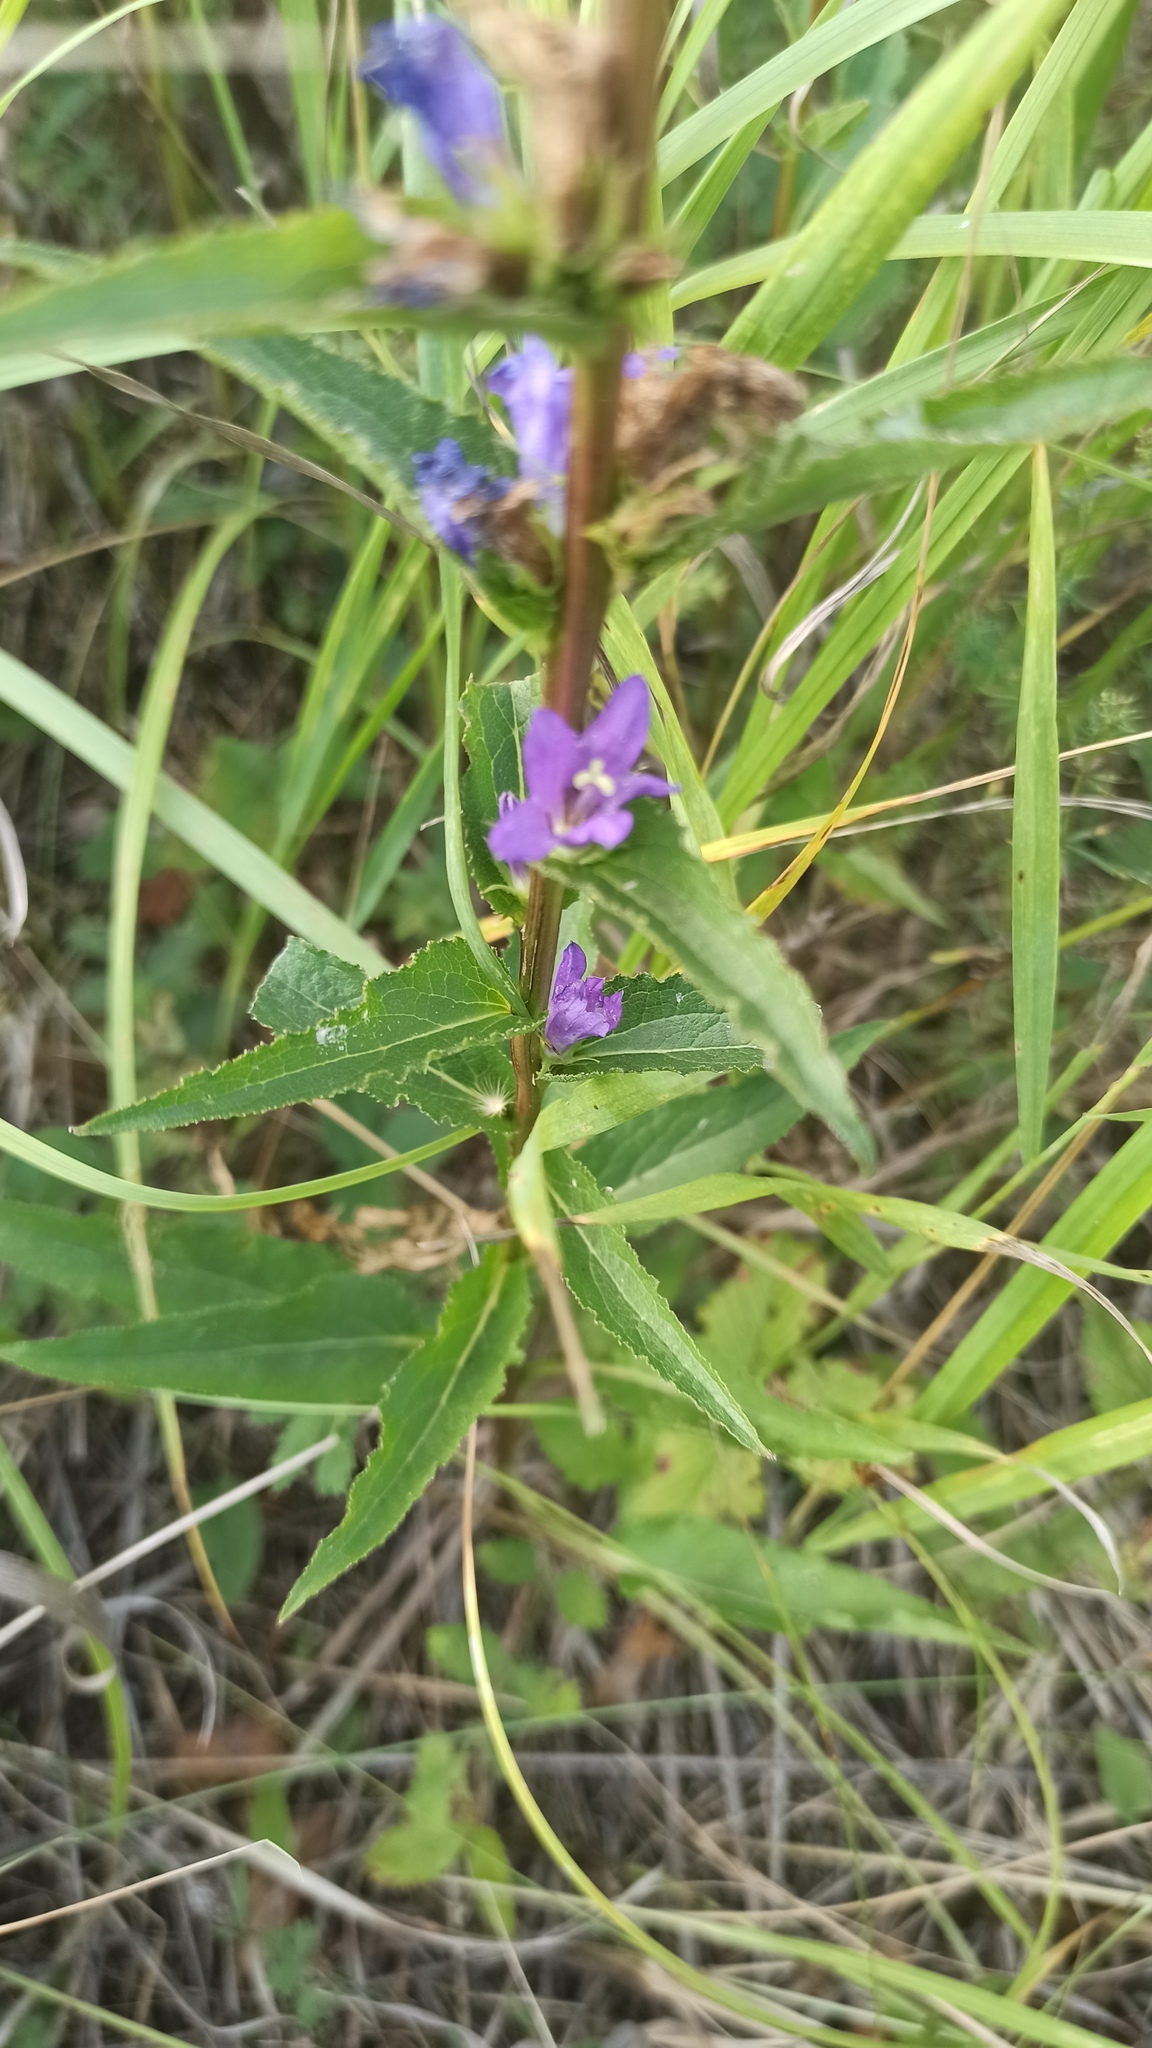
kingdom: Plantae
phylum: Tracheophyta
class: Magnoliopsida
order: Asterales
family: Campanulaceae
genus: Campanula
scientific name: Campanula glomerata
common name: Clustered bellflower
